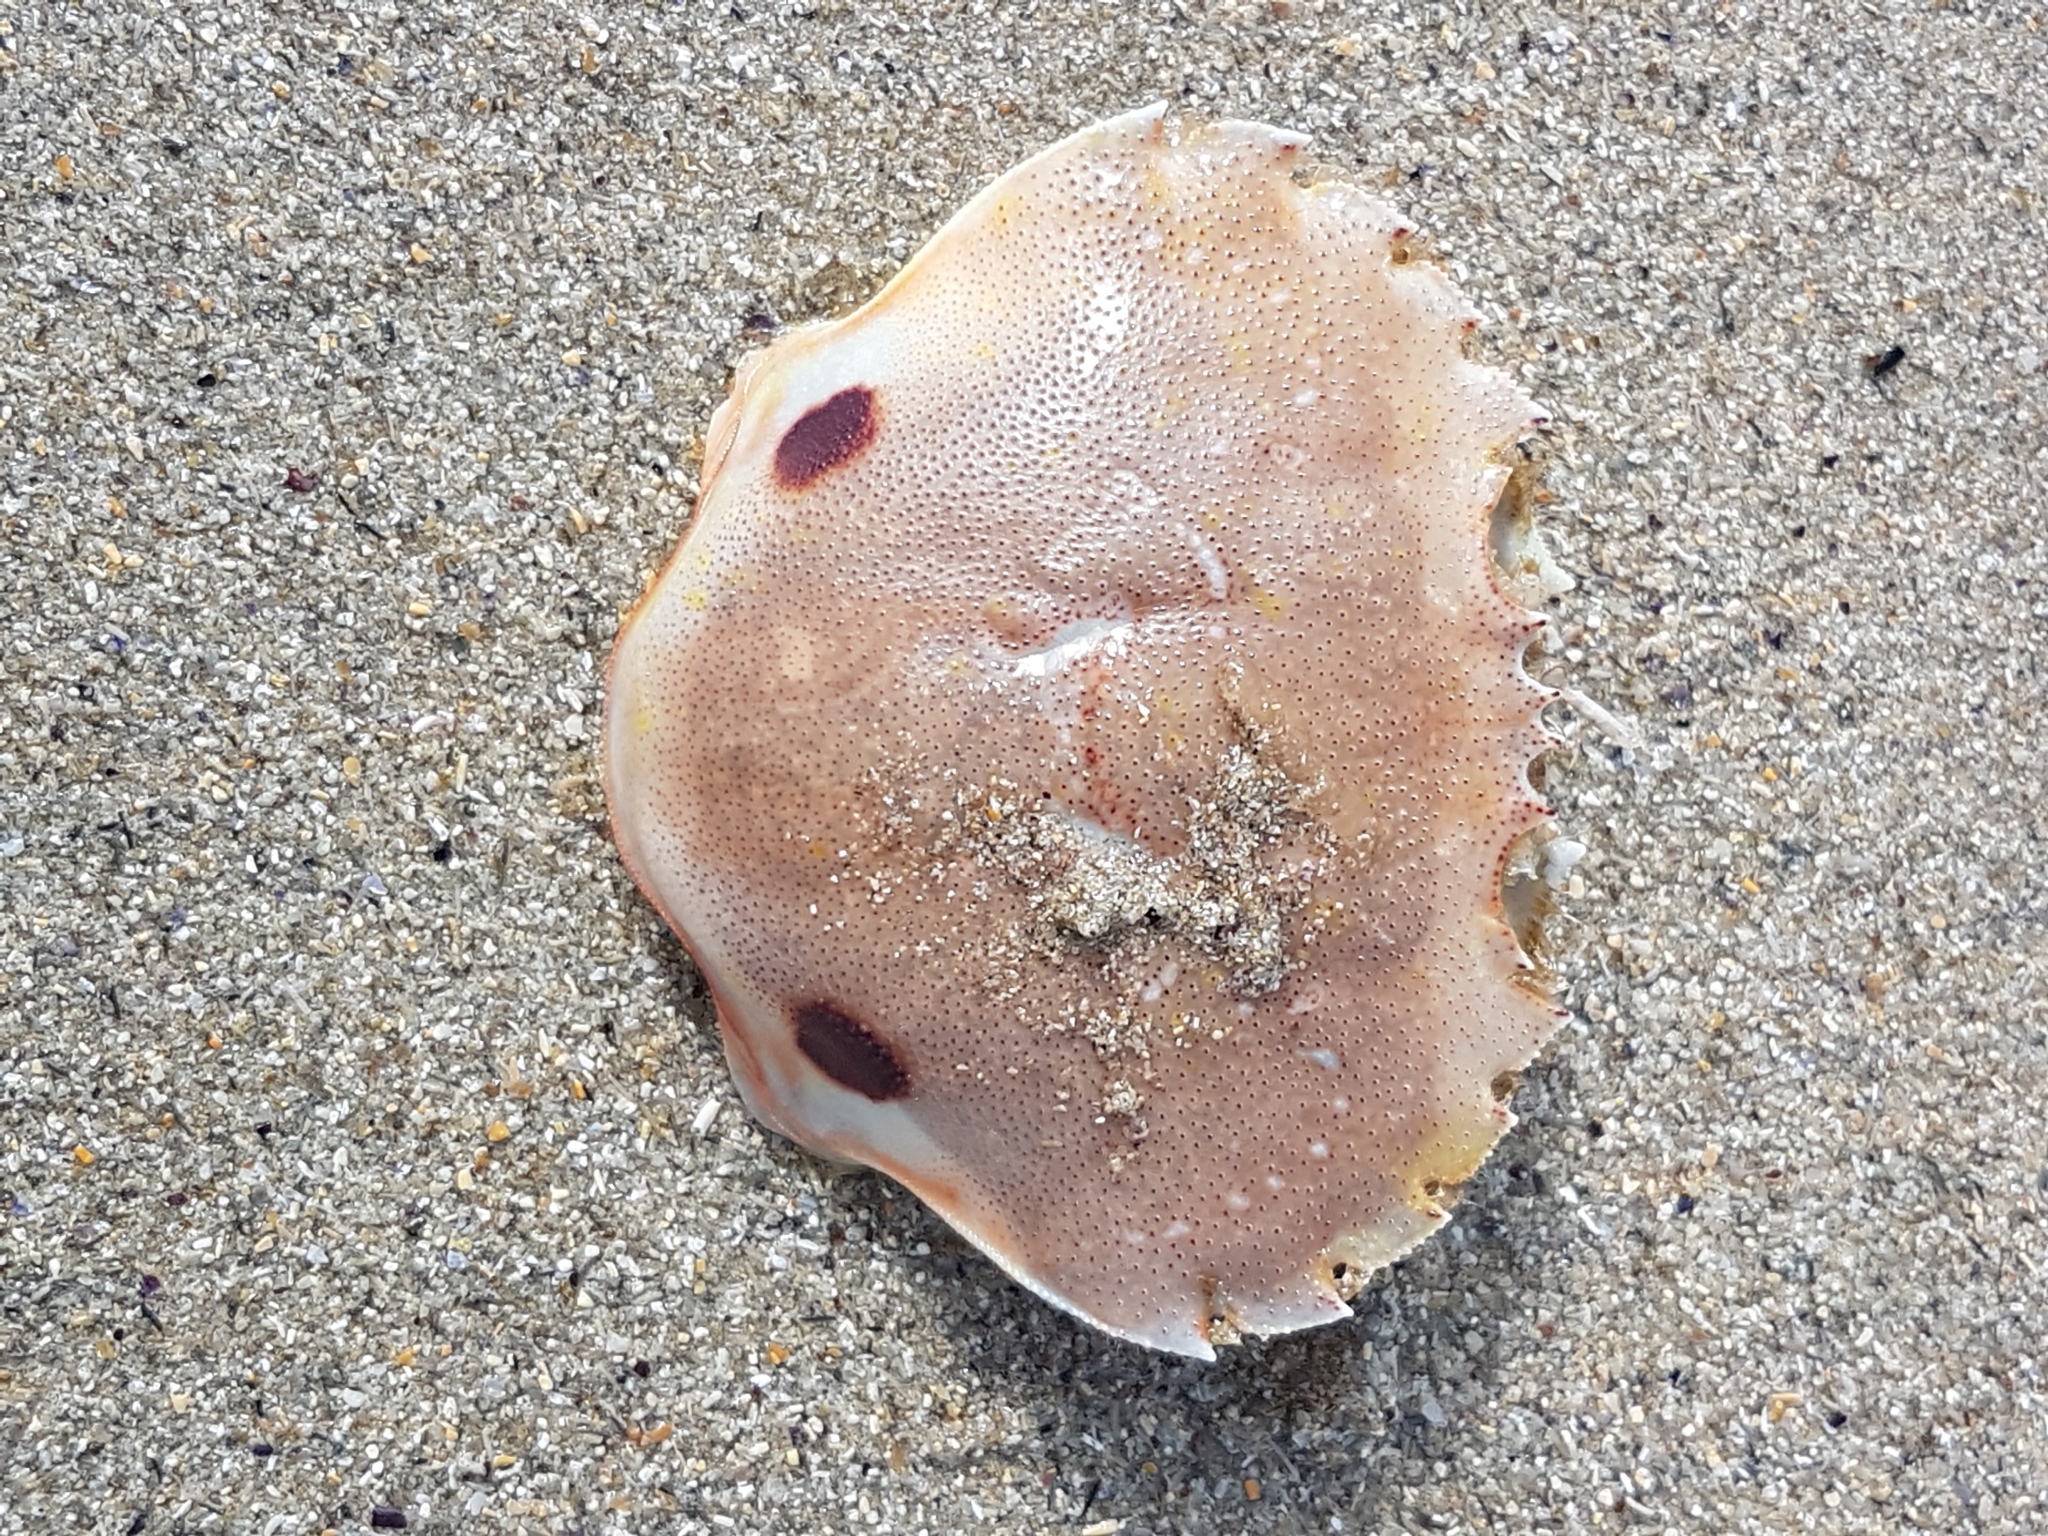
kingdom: Animalia
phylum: Arthropoda
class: Malacostraca
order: Decapoda
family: Ovalipidae
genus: Ovalipes
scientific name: Ovalipes australiensis
